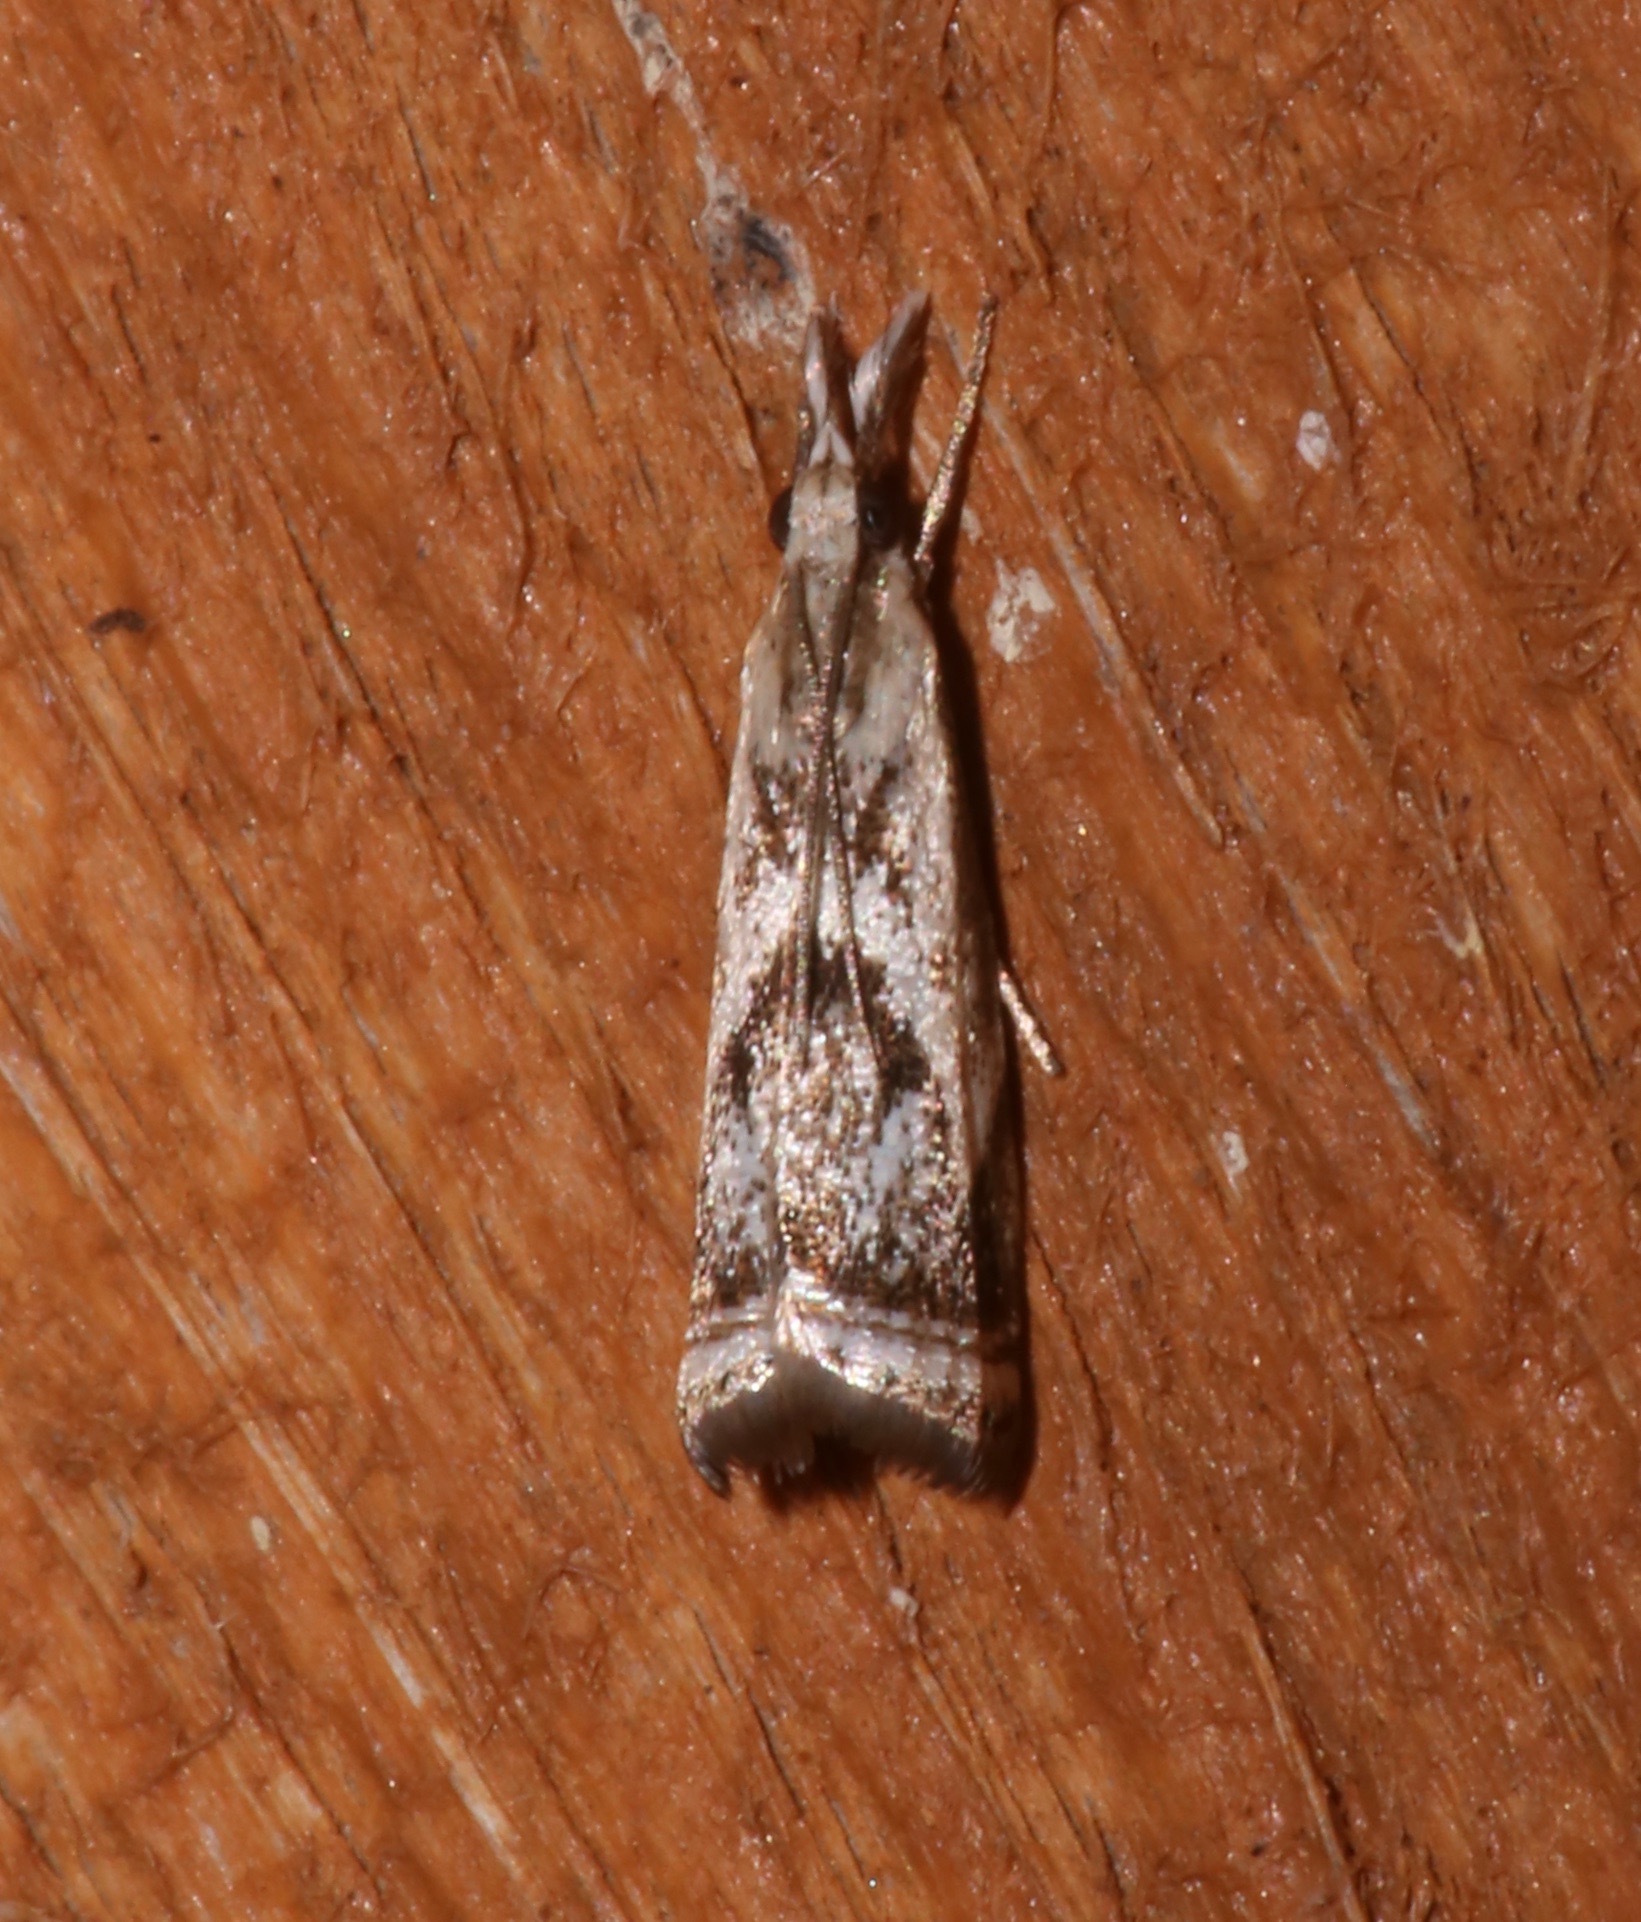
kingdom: Animalia
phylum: Arthropoda
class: Insecta
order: Lepidoptera
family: Crambidae
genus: Microcrambus
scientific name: Microcrambus elegans
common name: Elegant grass-veneer
